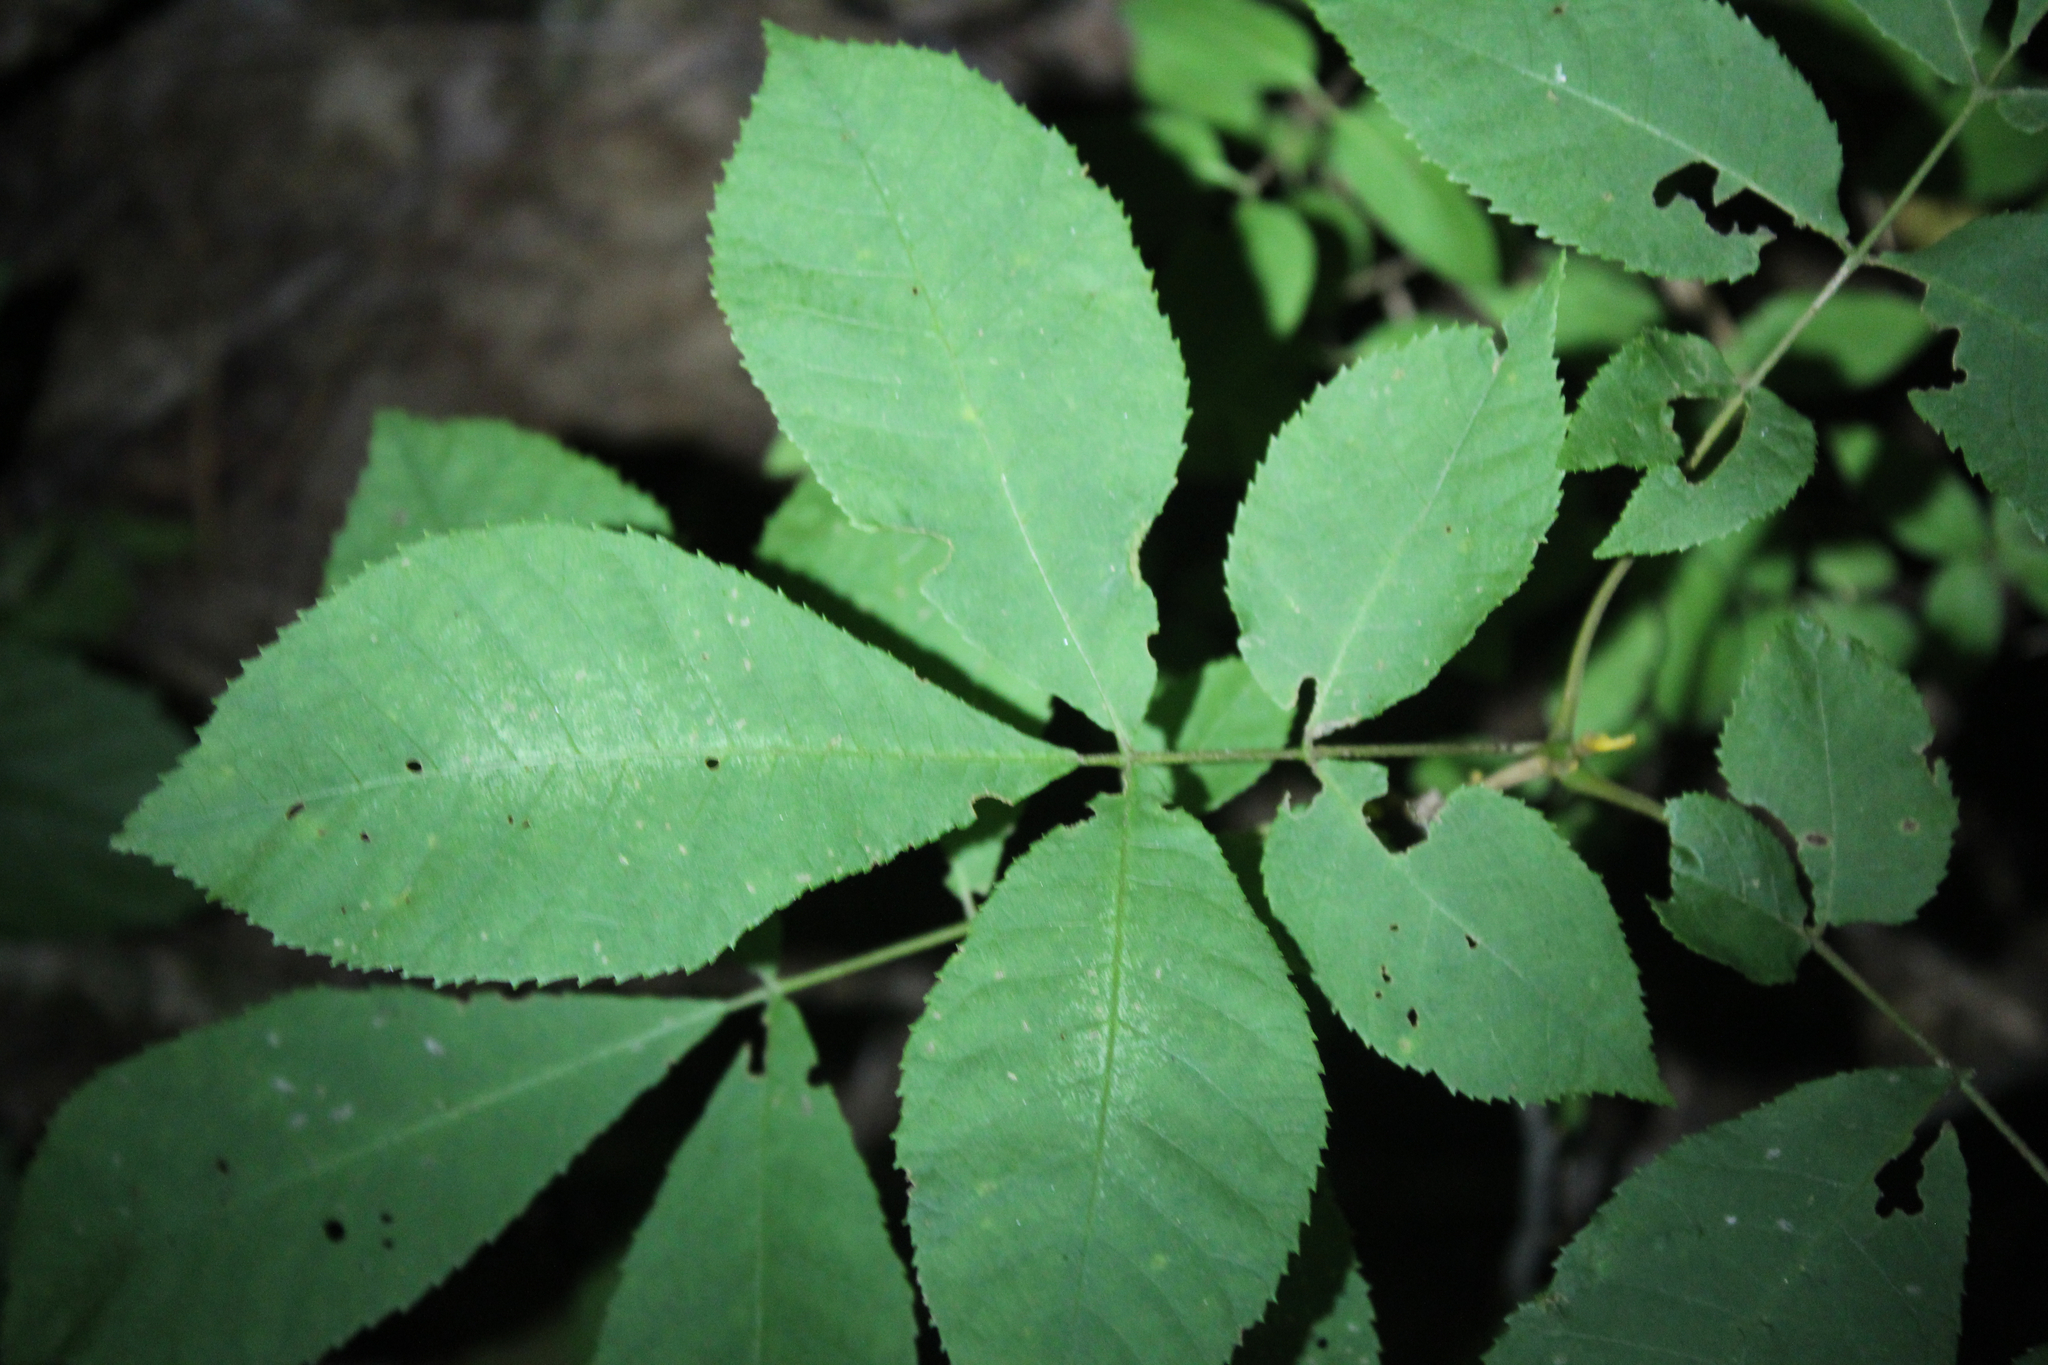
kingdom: Plantae
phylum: Tracheophyta
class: Magnoliopsida
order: Fagales
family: Juglandaceae
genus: Carya
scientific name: Carya cordiformis
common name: Bitternut hickory
